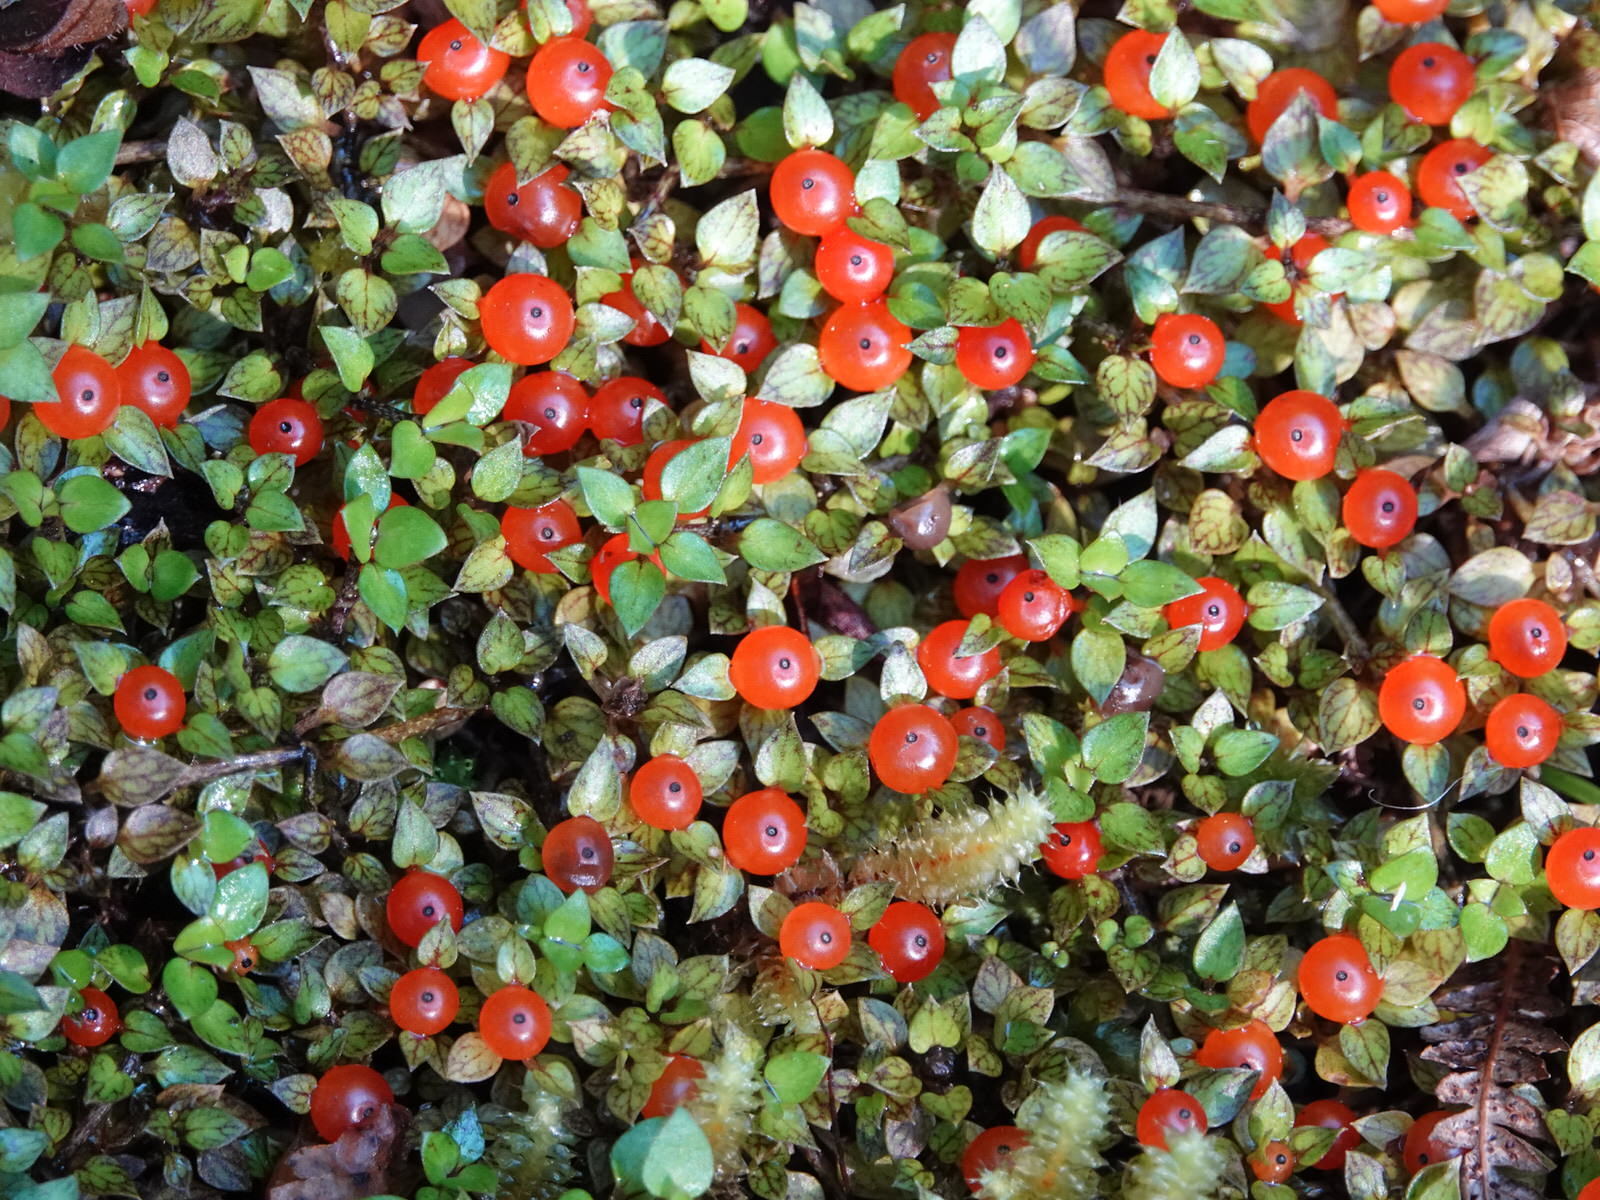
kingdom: Plantae
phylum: Tracheophyta
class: Magnoliopsida
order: Gentianales
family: Rubiaceae
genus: Nertera
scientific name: Nertera granadensis
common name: Beadplant
